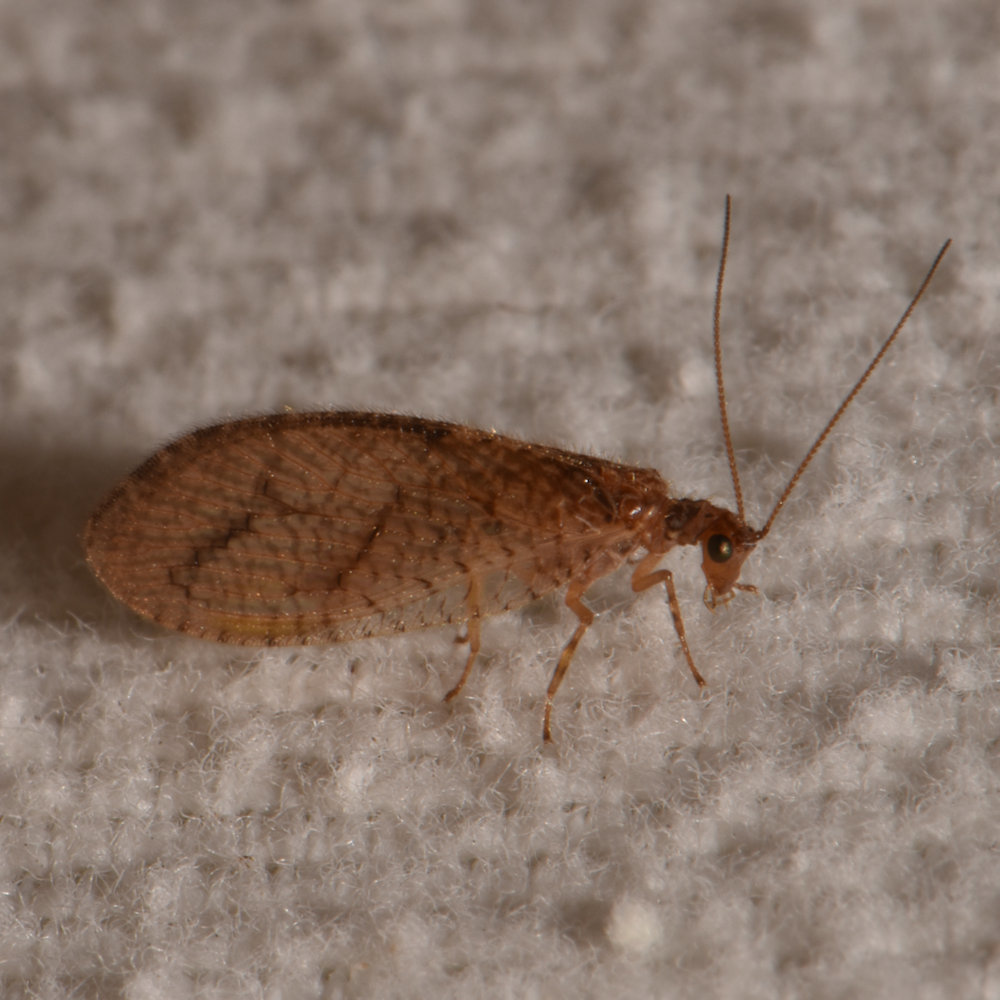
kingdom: Animalia
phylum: Arthropoda
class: Insecta
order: Neuroptera
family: Hemerobiidae
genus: Micromus
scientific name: Micromus posticus
